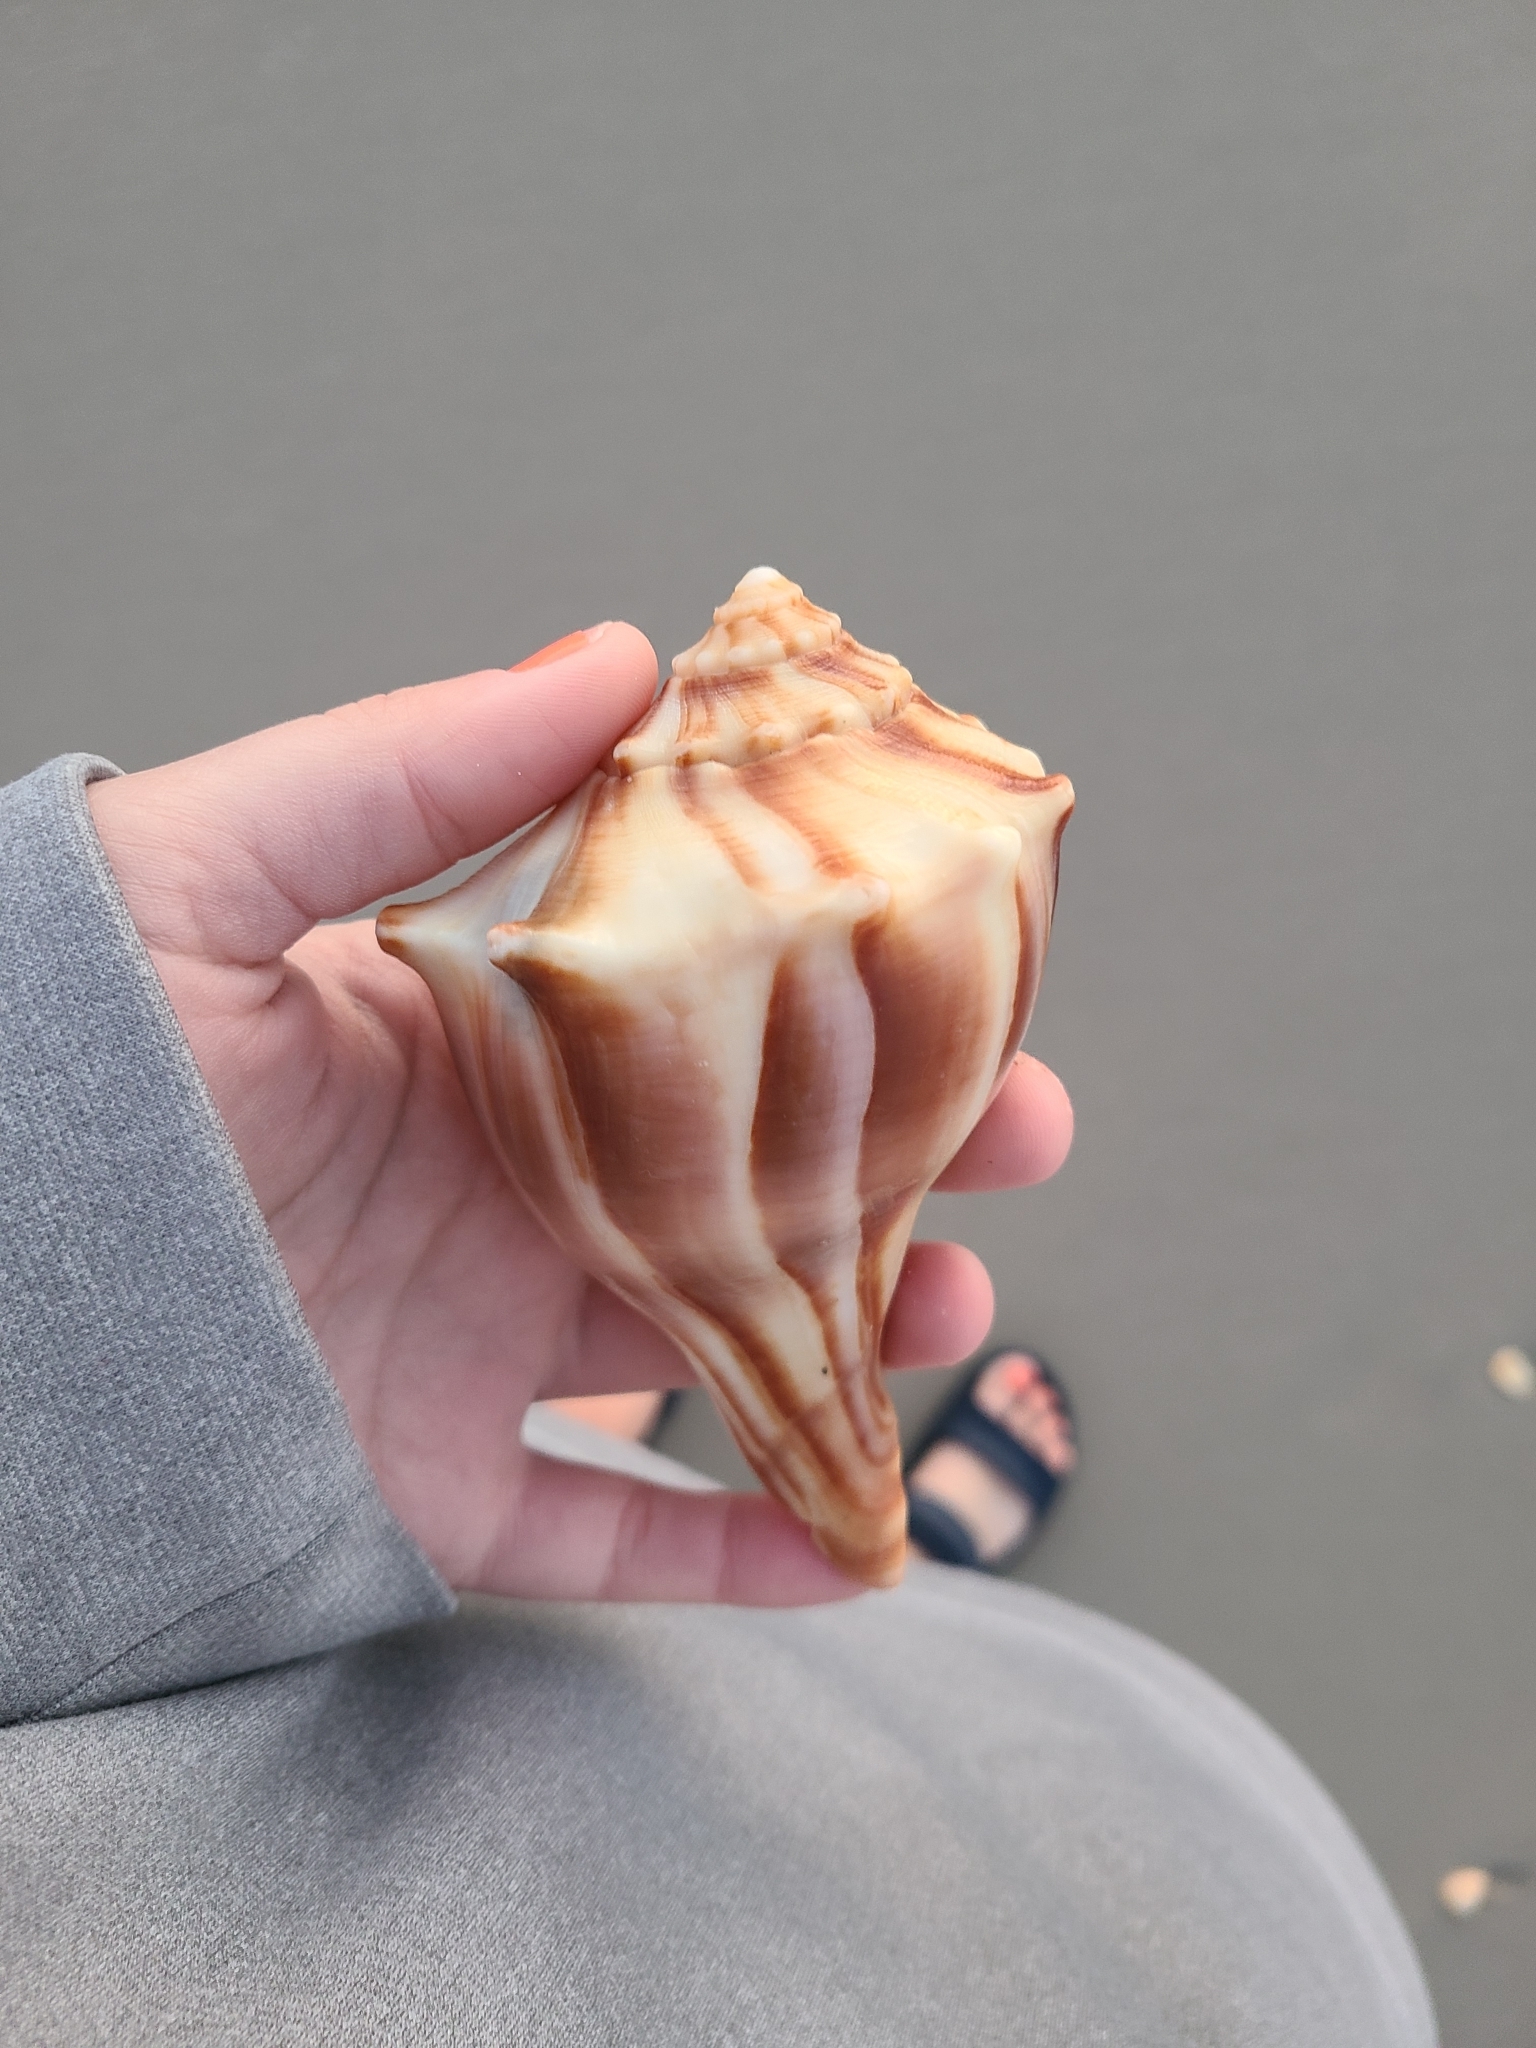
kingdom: Animalia
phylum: Mollusca
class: Gastropoda
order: Neogastropoda
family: Busyconidae
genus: Busycon
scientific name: Busycon carica
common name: Knobbed whelk
